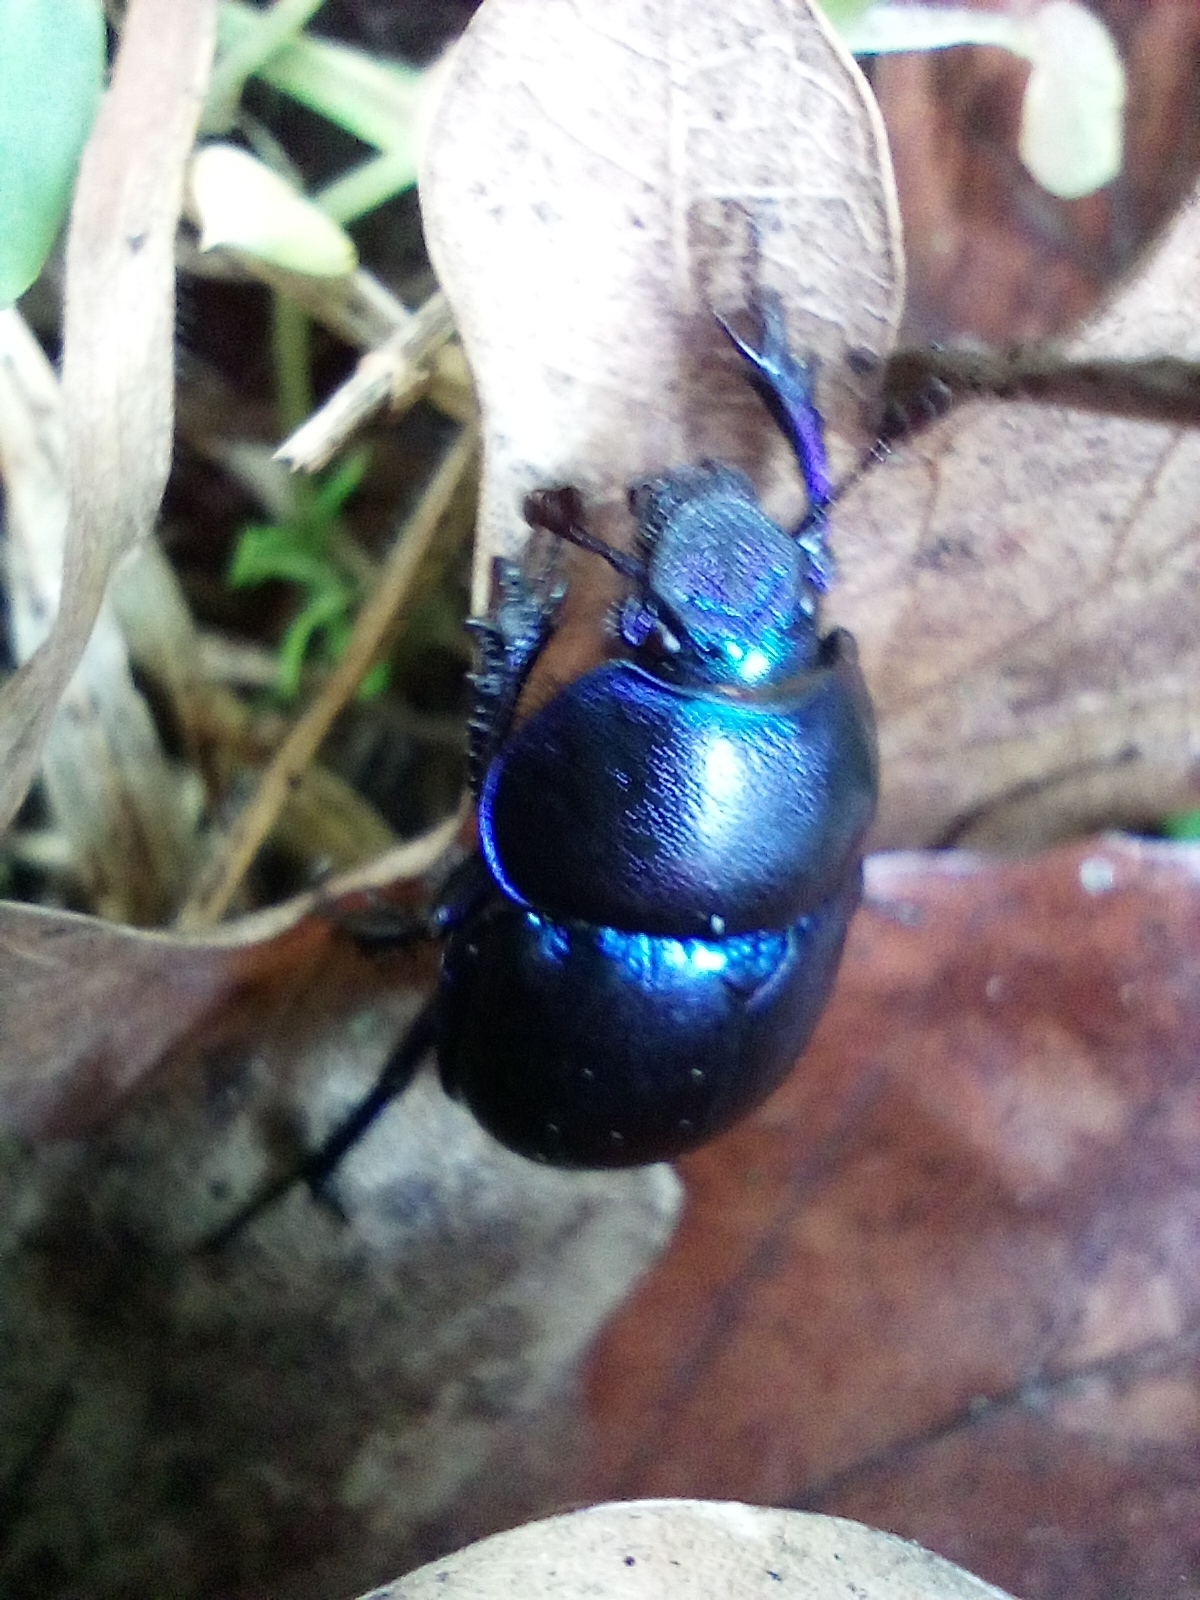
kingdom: Animalia
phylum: Arthropoda
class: Insecta
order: Coleoptera
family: Geotrupidae
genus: Trypocopris
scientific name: Trypocopris vernalis
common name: Spring dumbledor
